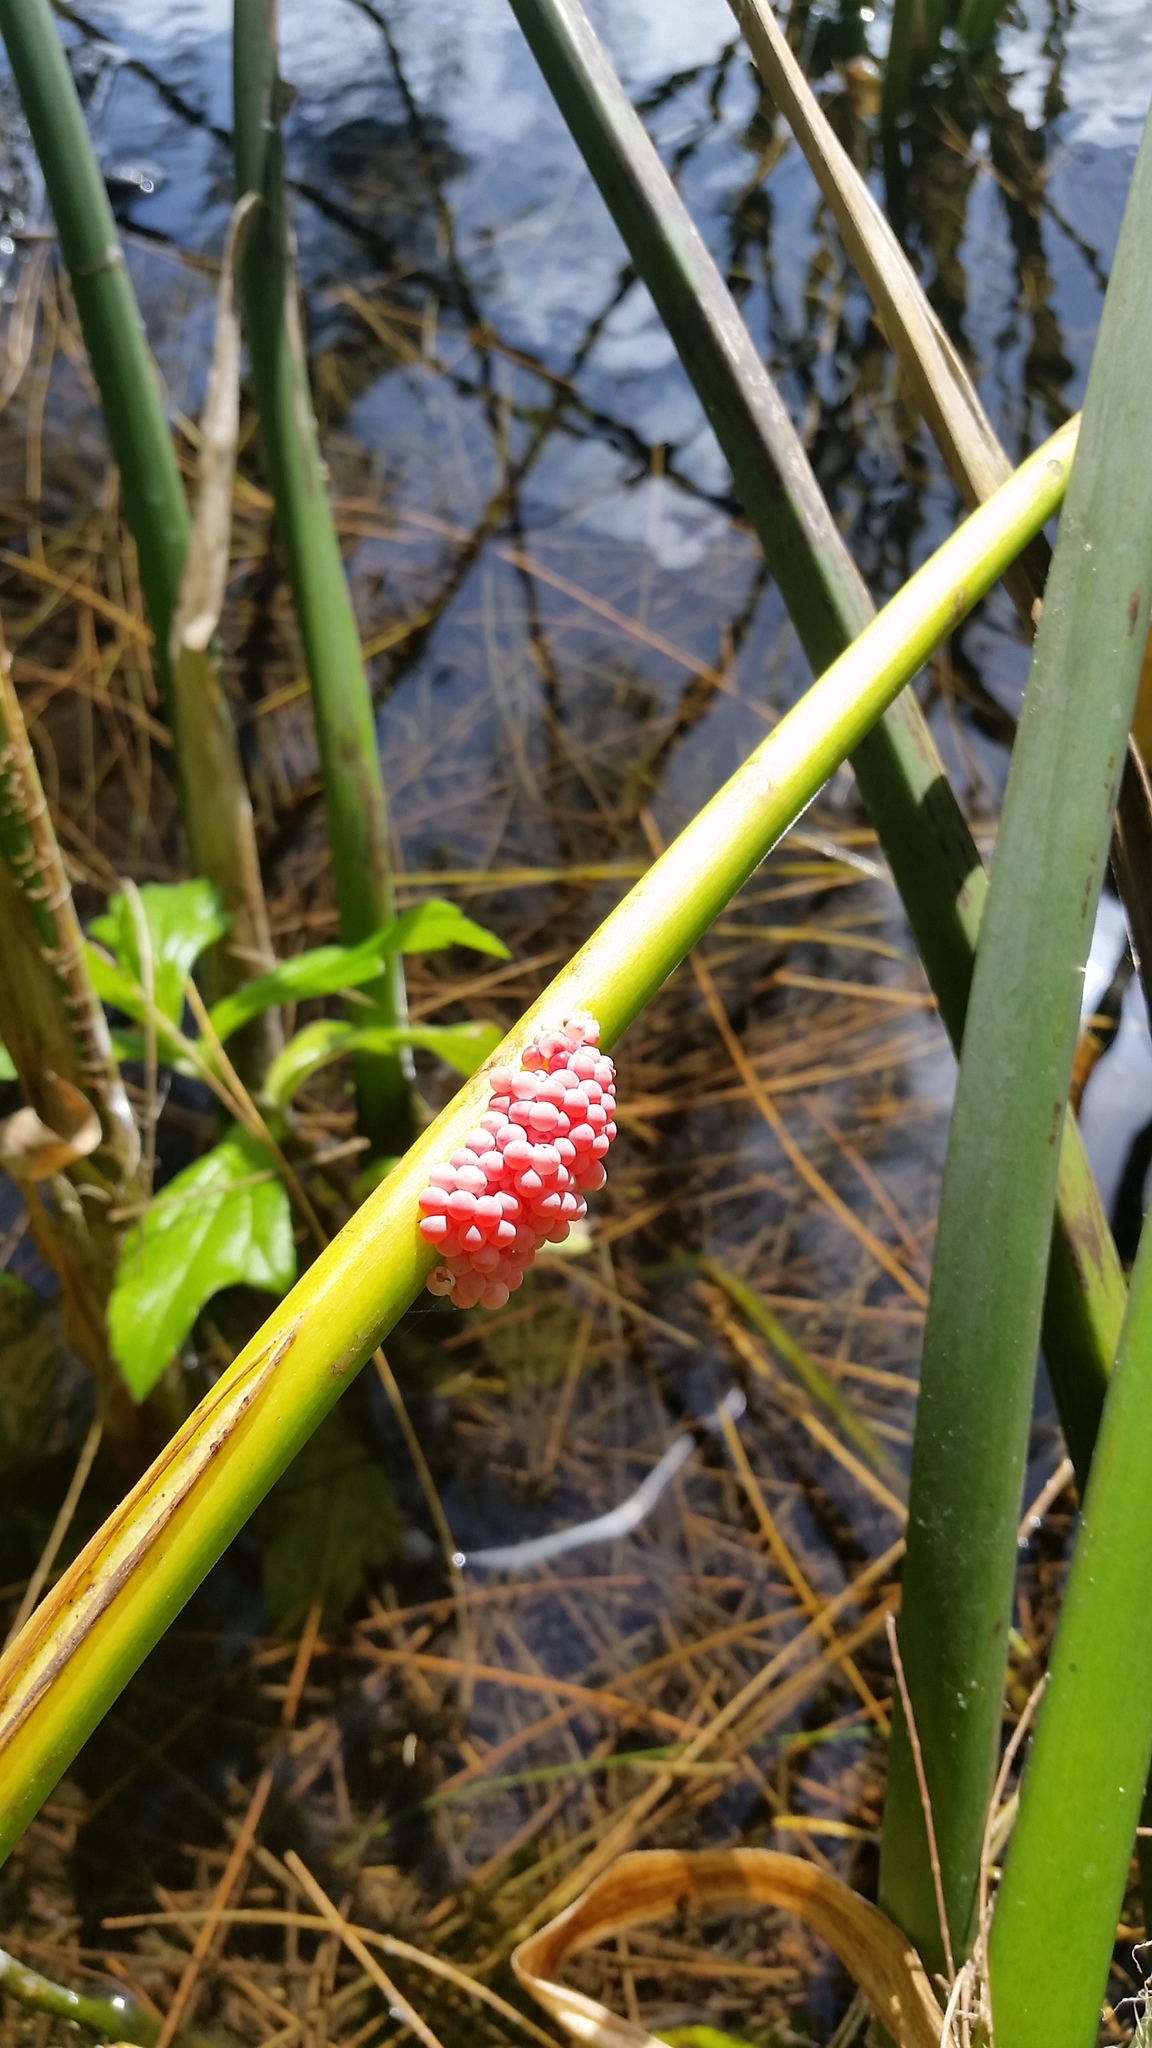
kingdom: Animalia
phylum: Mollusca
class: Gastropoda
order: Architaenioglossa
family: Ampullariidae
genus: Pomacea
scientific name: Pomacea canaliculata
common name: Channeled applesnail
